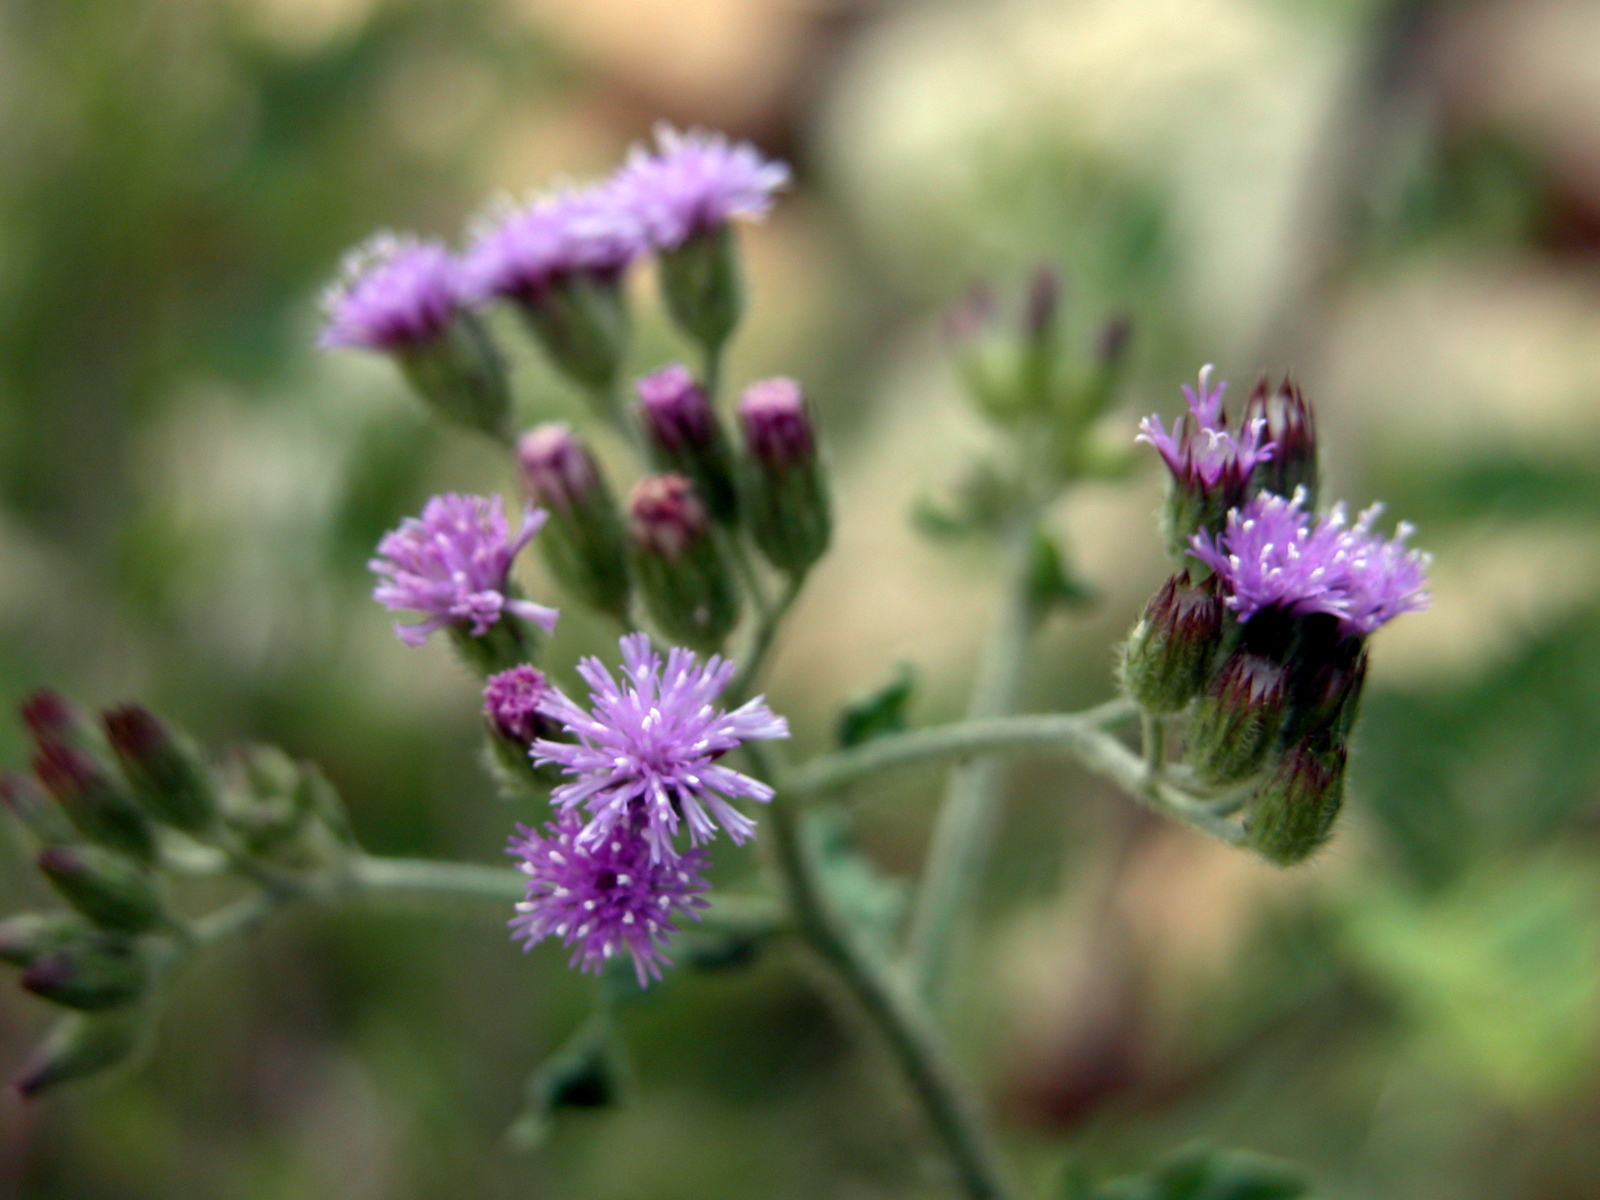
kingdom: Plantae
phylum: Tracheophyta
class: Magnoliopsida
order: Asterales
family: Asteraceae
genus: Cyanthillium
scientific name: Cyanthillium cinereum
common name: Little ironweed
